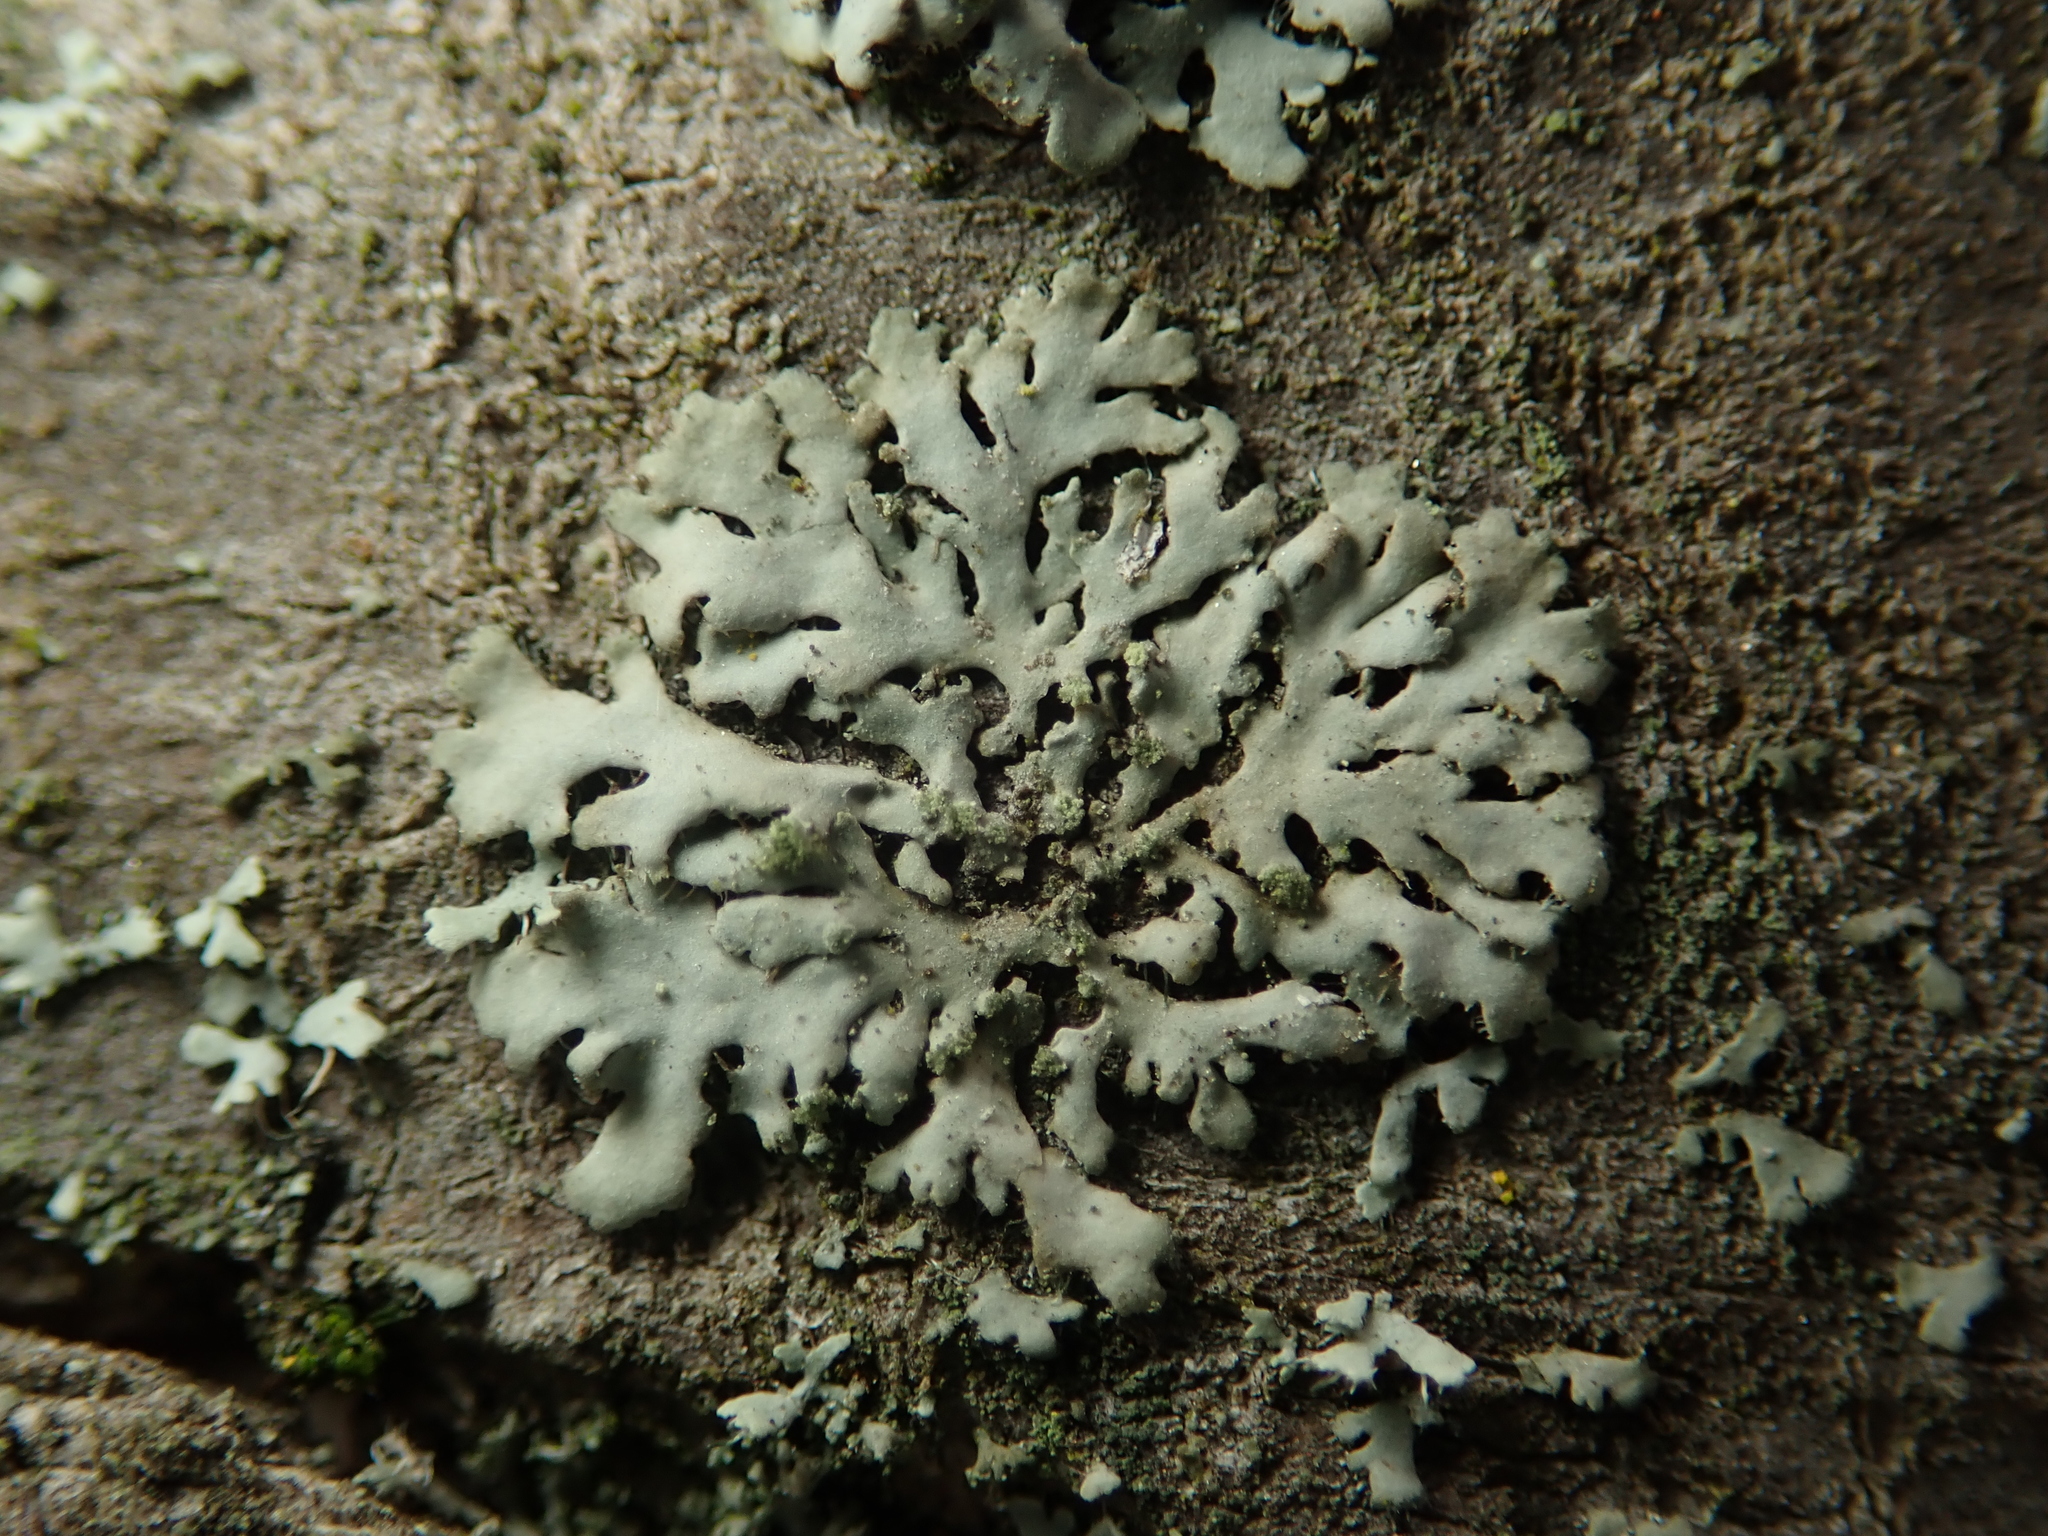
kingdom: Fungi
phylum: Ascomycota
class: Lecanoromycetes
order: Caliciales
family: Physciaceae
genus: Phaeophyscia
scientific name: Phaeophyscia orbicularis
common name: Mealy shadow lichen
